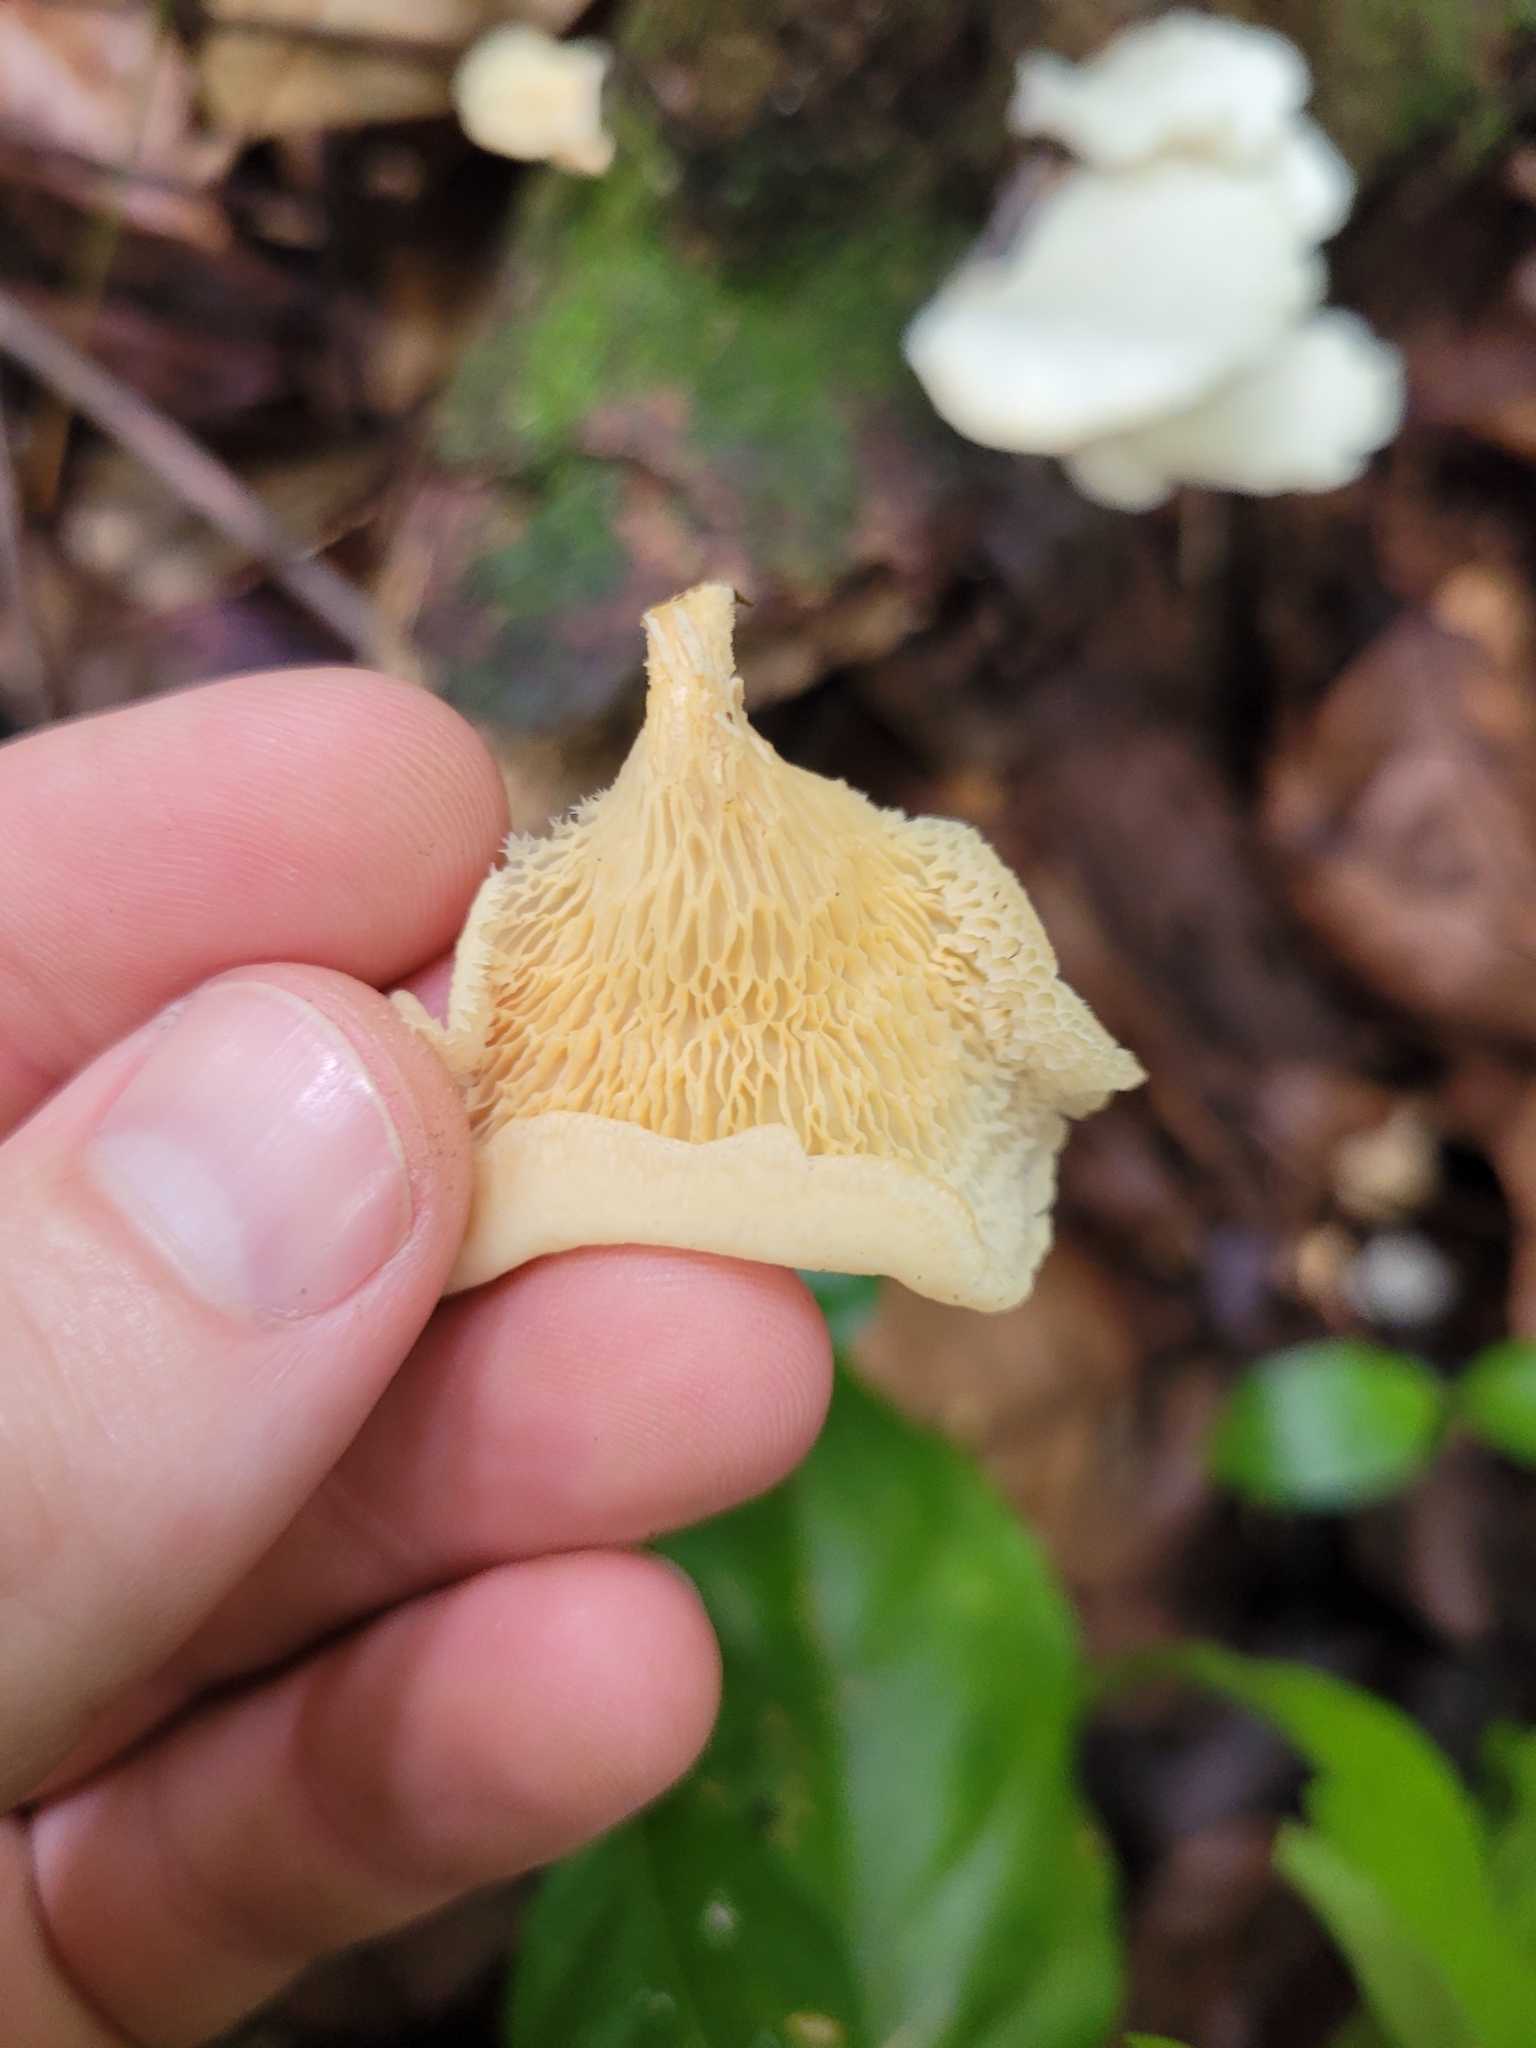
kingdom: Fungi
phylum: Basidiomycota
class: Agaricomycetes
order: Polyporales
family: Polyporaceae
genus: Favolus
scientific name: Favolus tenuiculus
